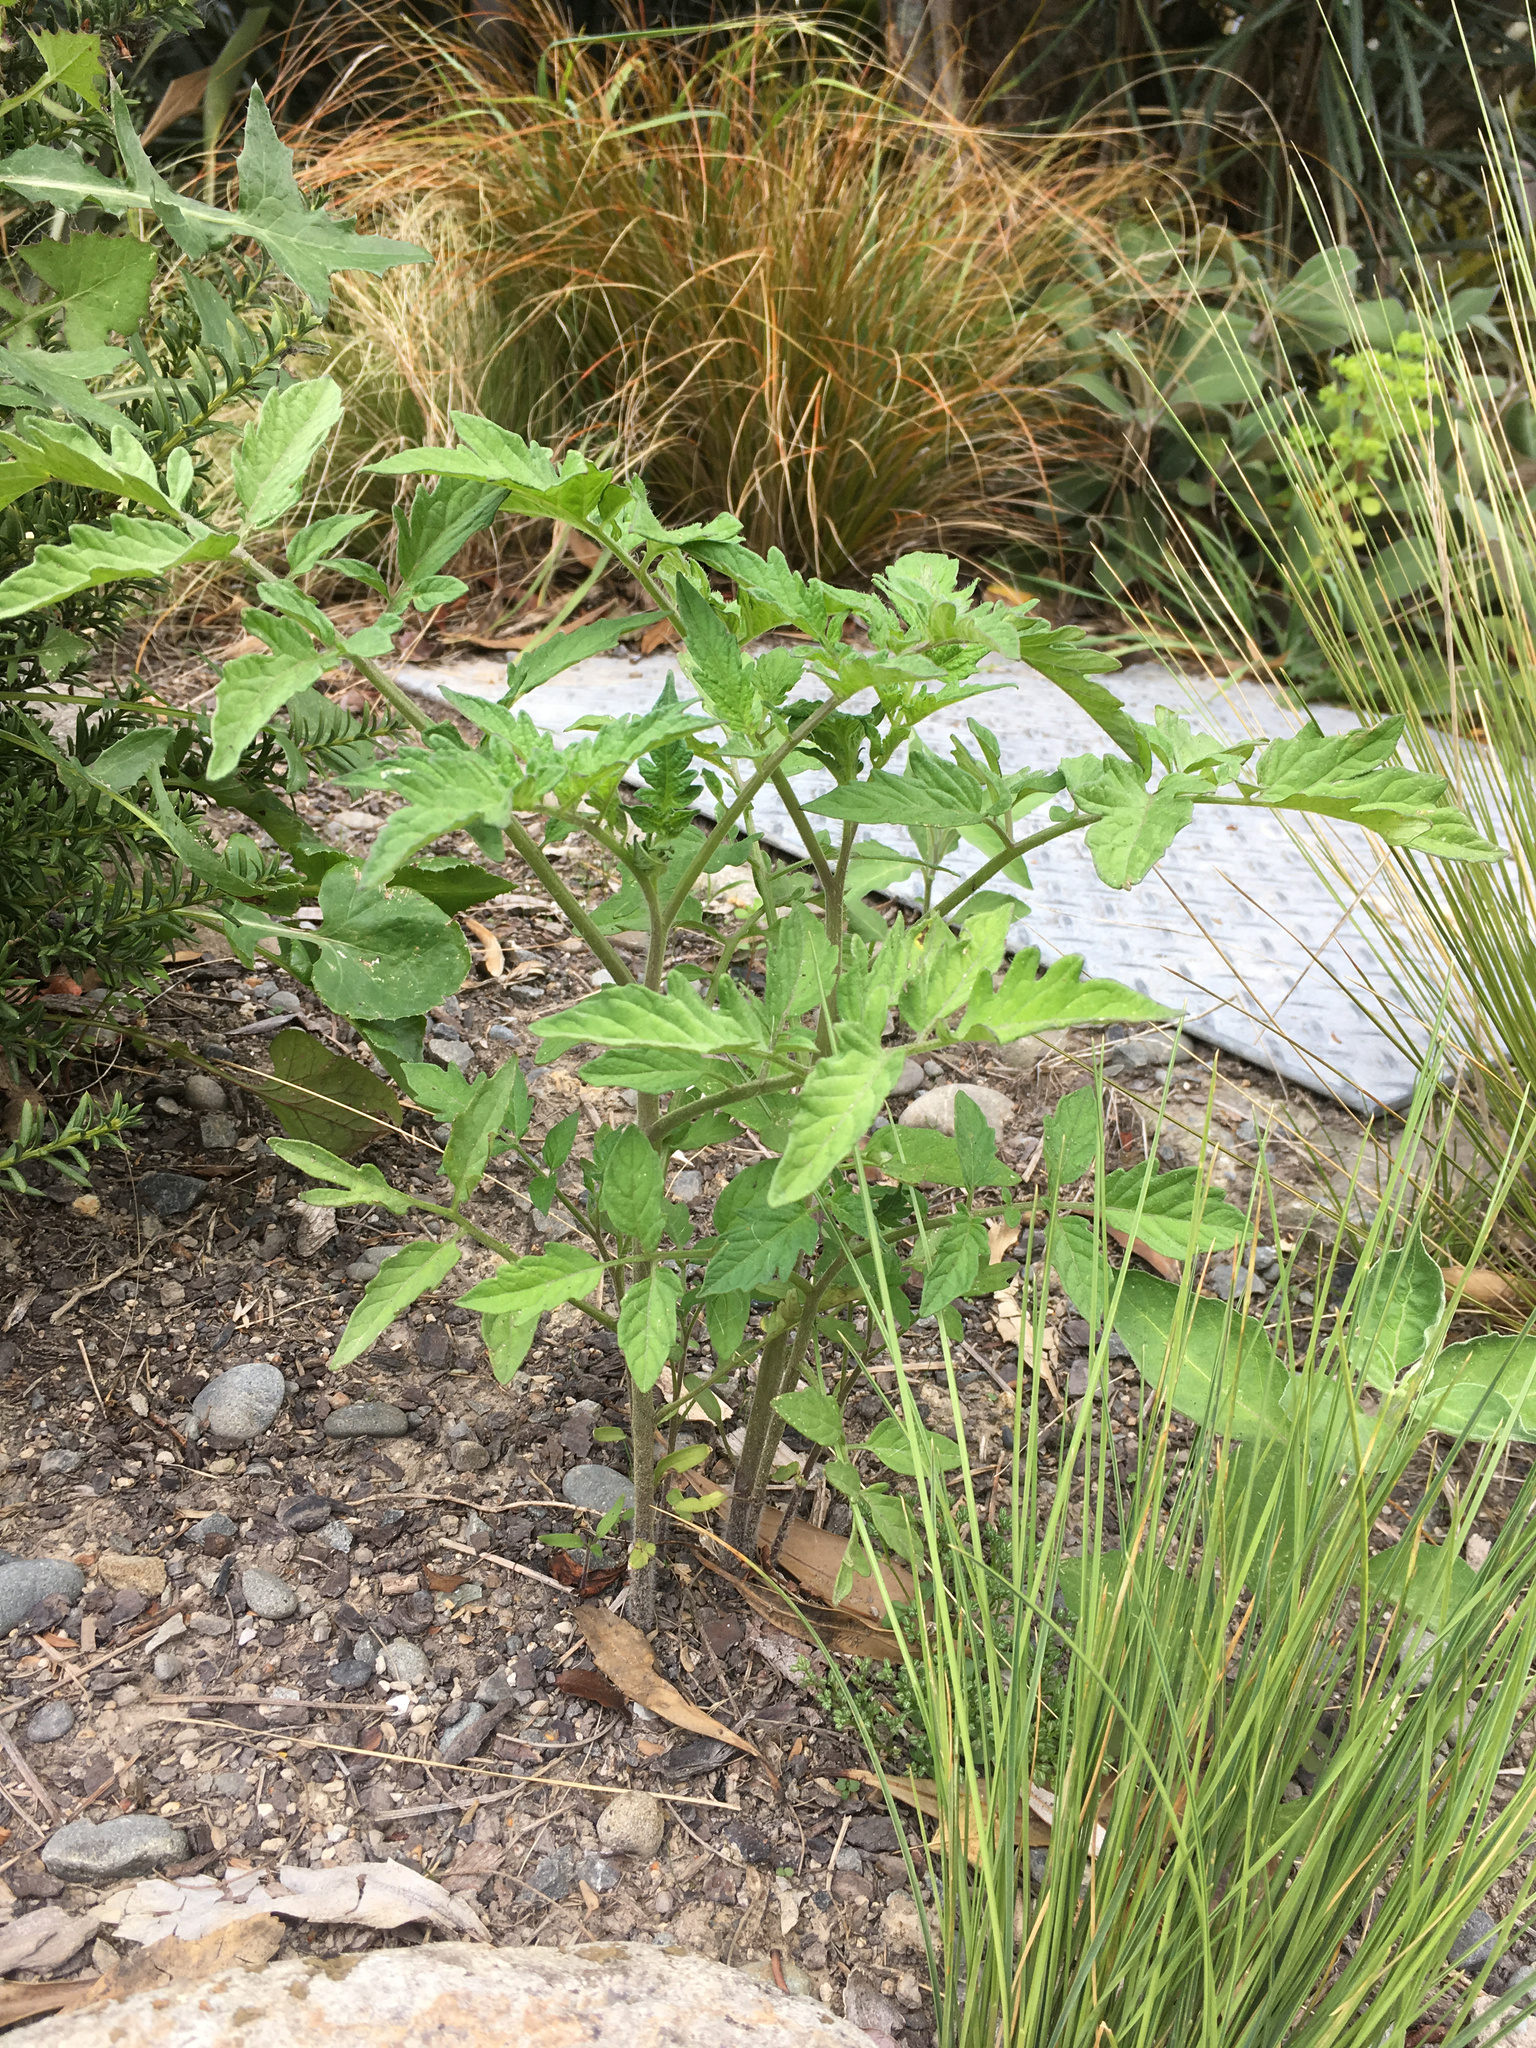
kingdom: Plantae
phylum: Tracheophyta
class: Magnoliopsida
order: Solanales
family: Solanaceae
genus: Solanum
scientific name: Solanum lycopersicum
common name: Garden tomato
